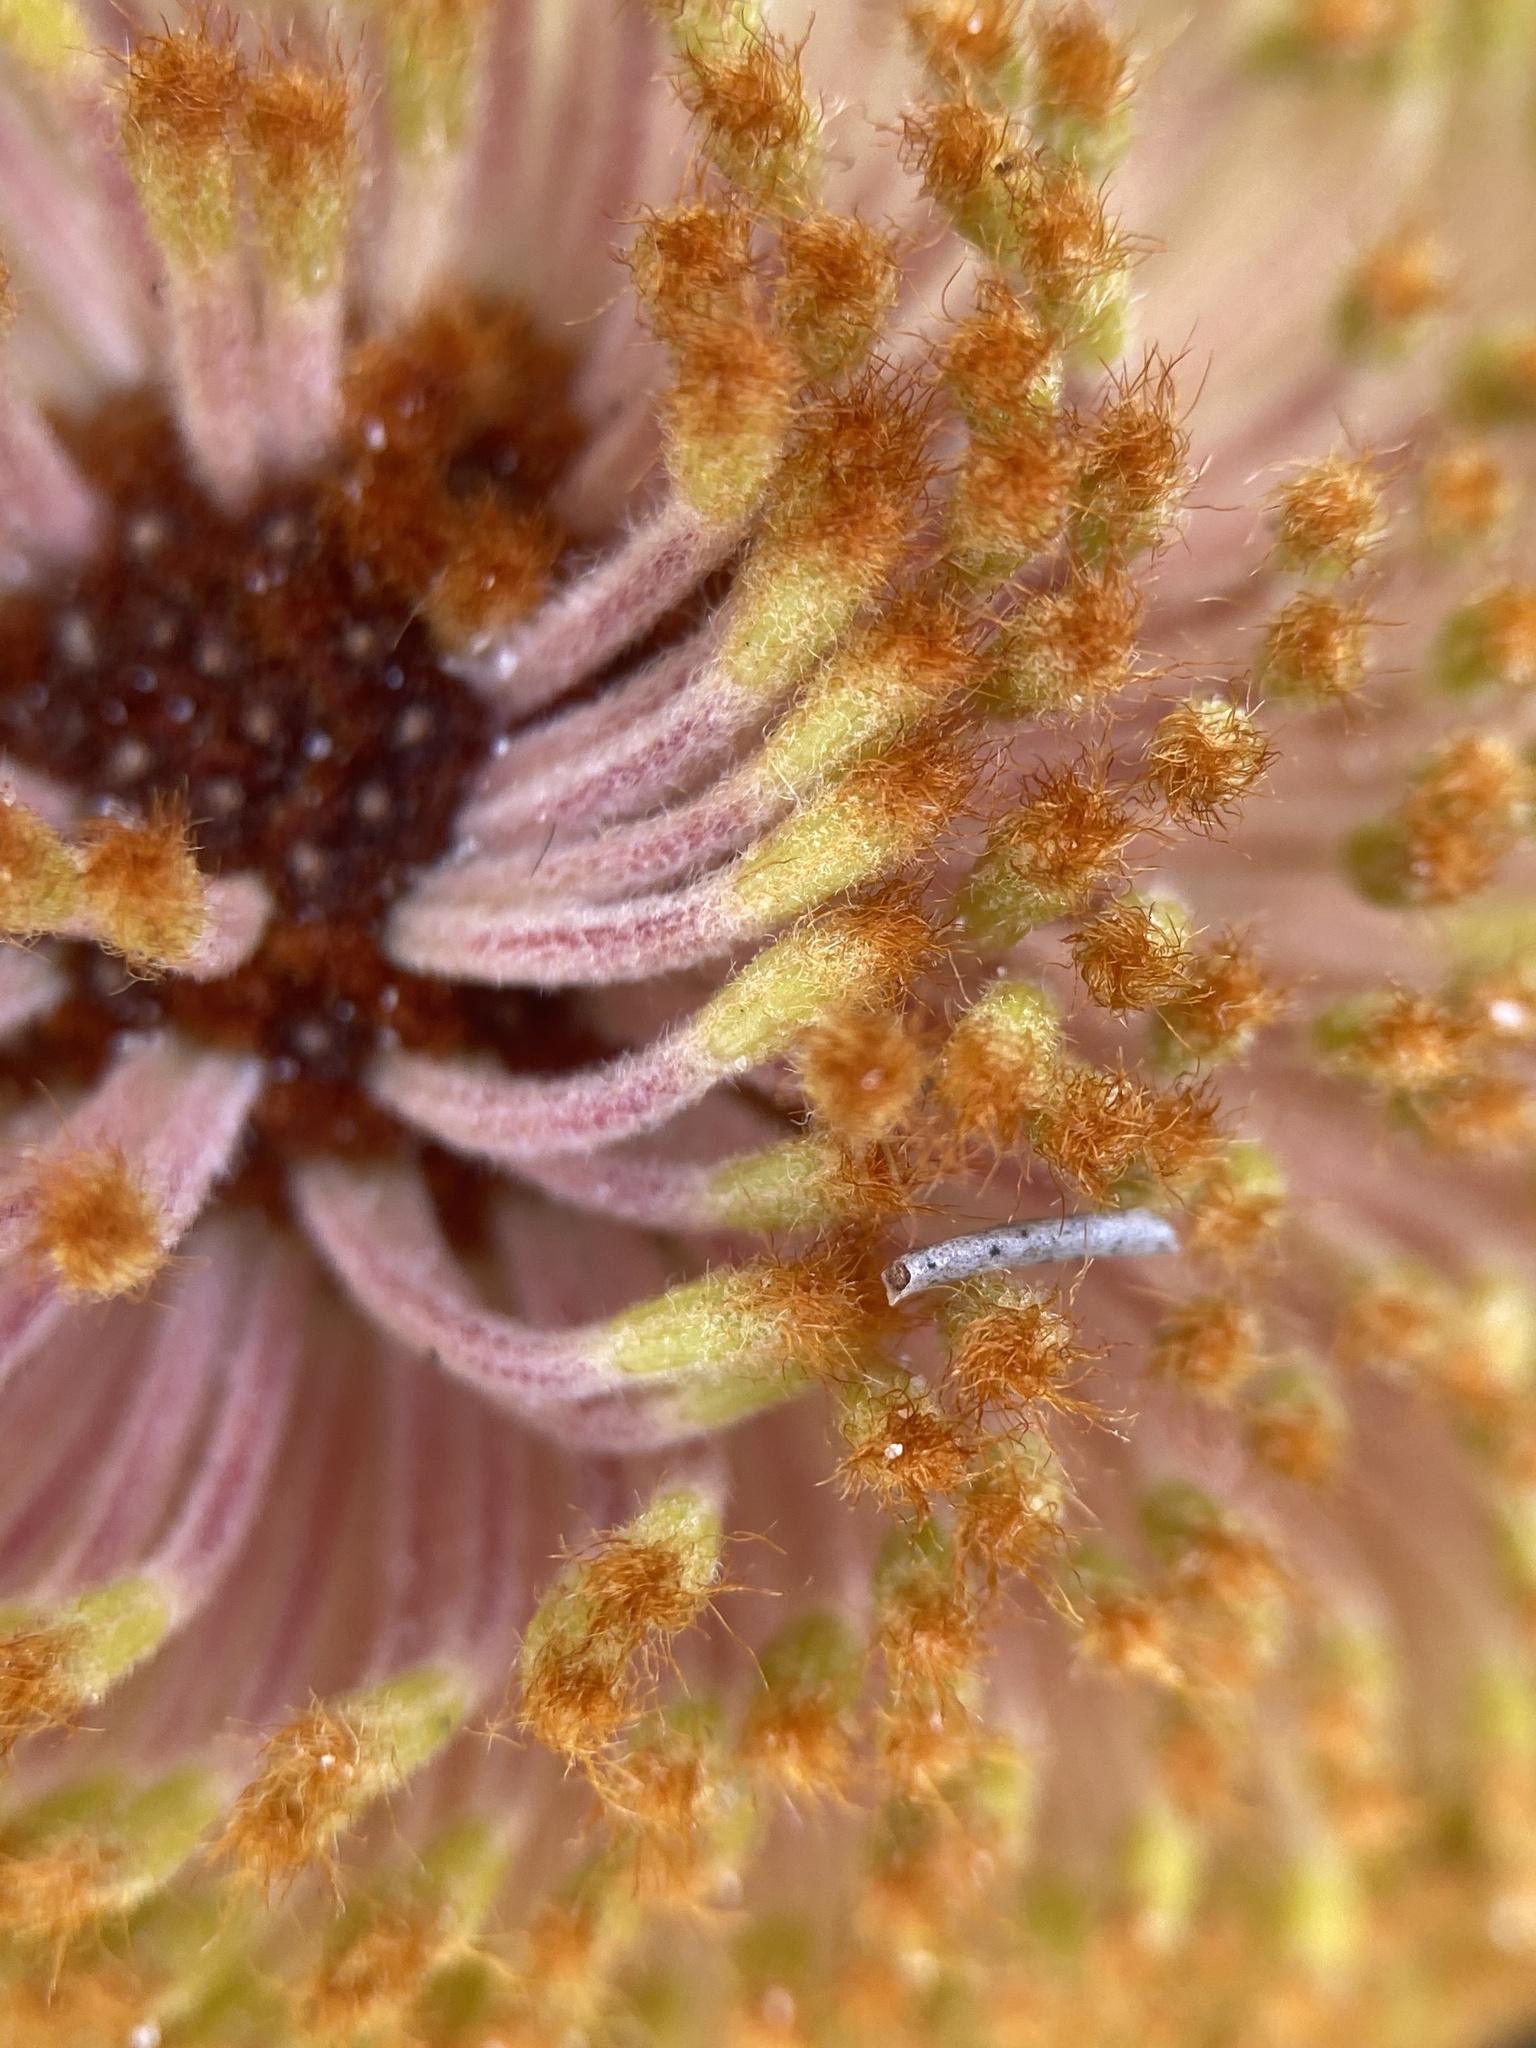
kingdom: Plantae
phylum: Tracheophyta
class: Magnoliopsida
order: Proteales
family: Proteaceae
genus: Banksia
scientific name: Banksia repens
